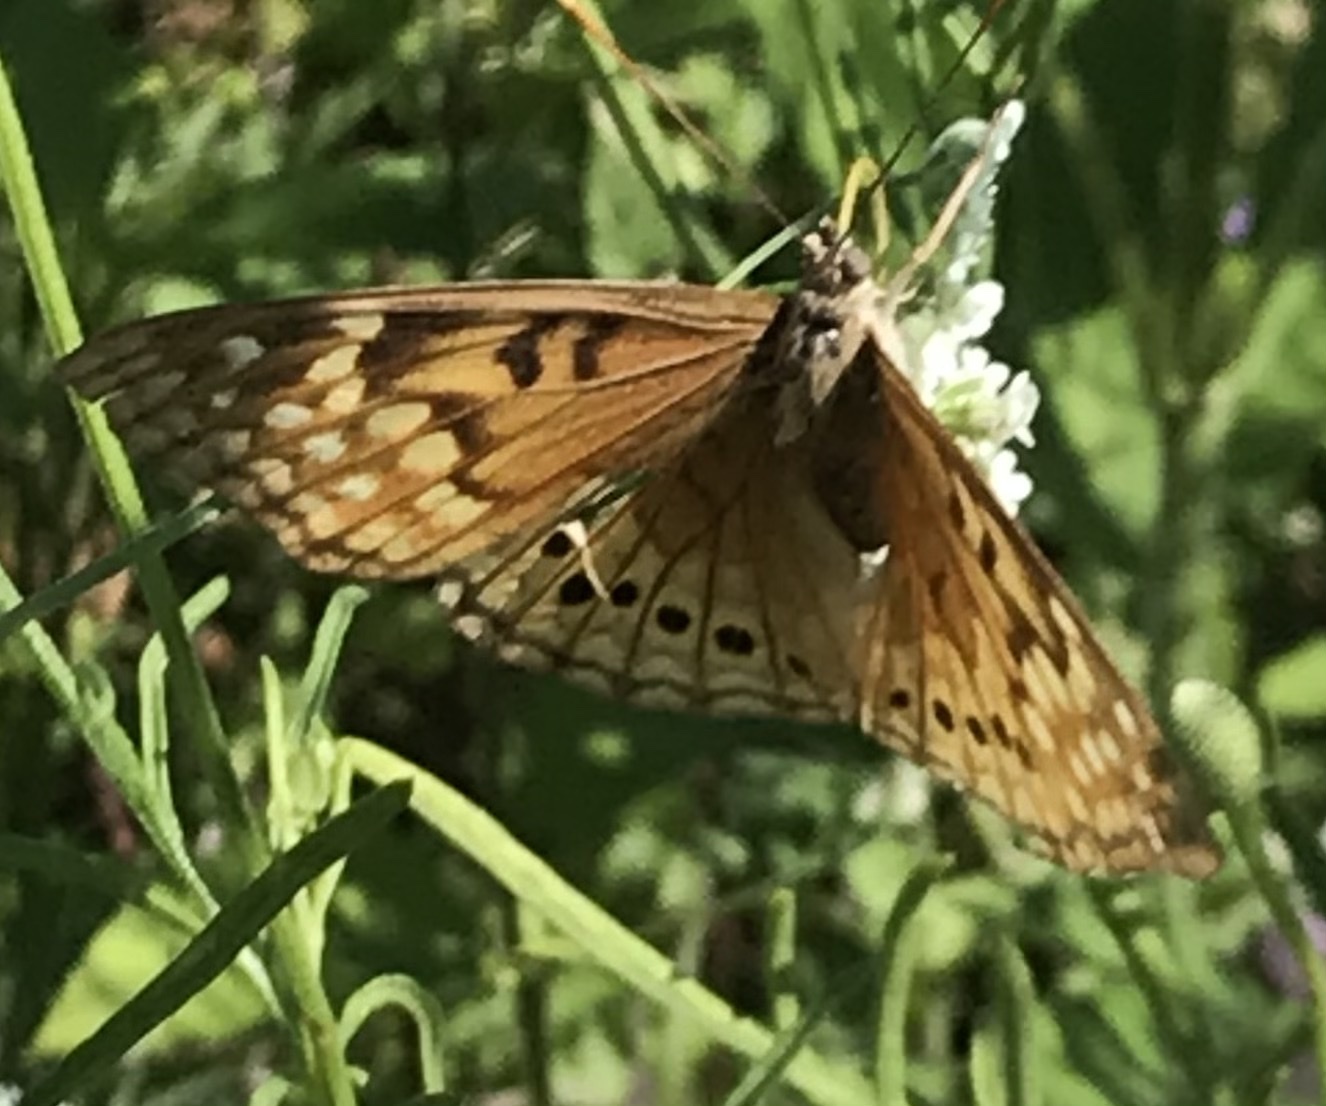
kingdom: Animalia
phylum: Arthropoda
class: Insecta
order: Lepidoptera
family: Nymphalidae
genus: Asterocampa
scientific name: Asterocampa clyton
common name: Tawny emperor
